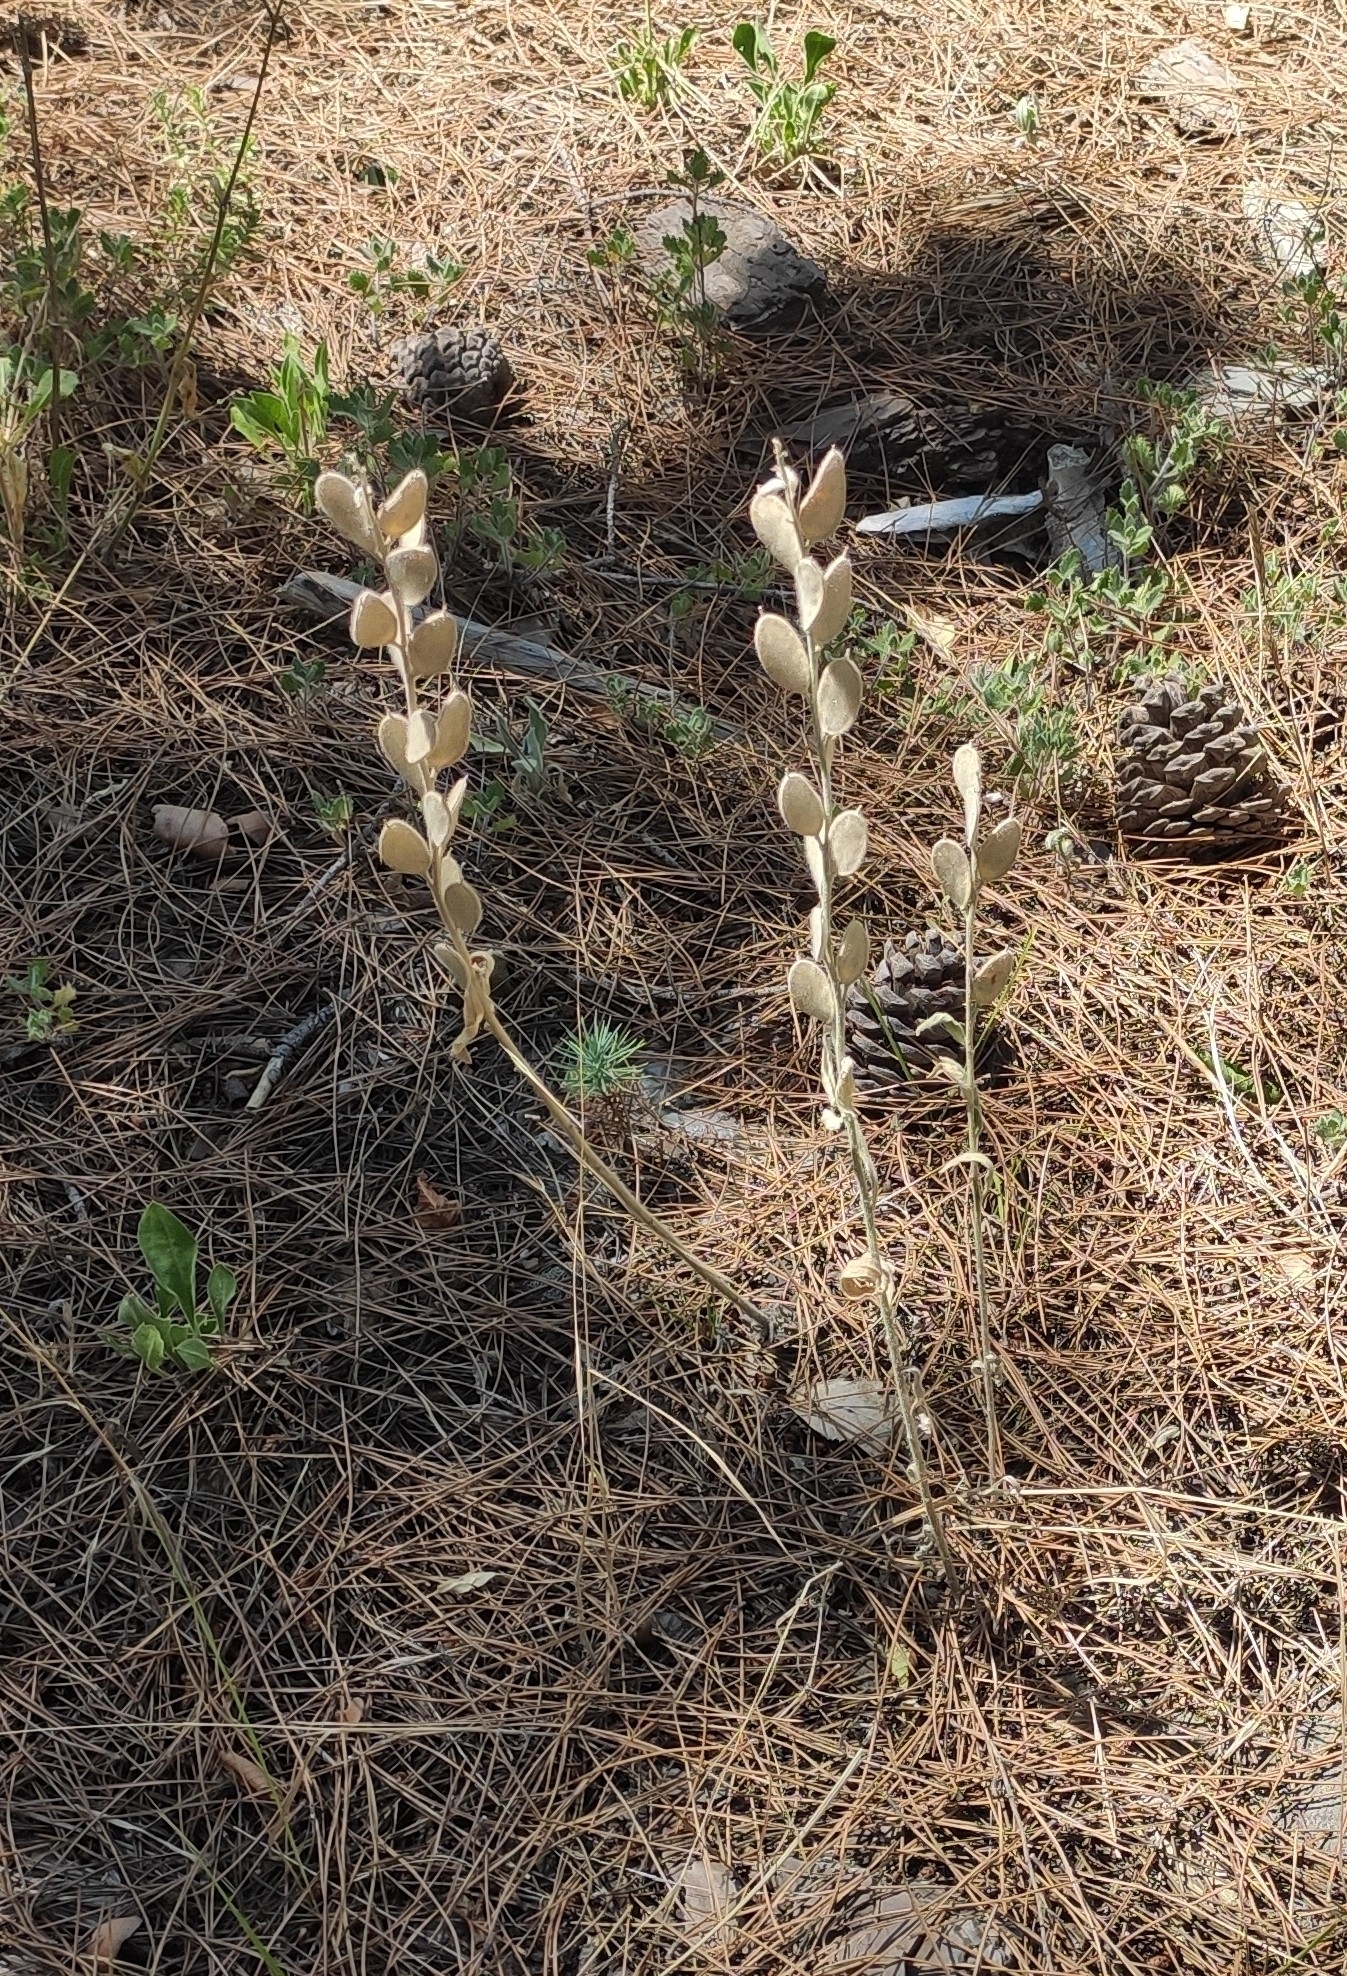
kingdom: Plantae
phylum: Tracheophyta
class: Magnoliopsida
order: Brassicales
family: Brassicaceae
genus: Fibigia
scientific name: Fibigia clypeata
